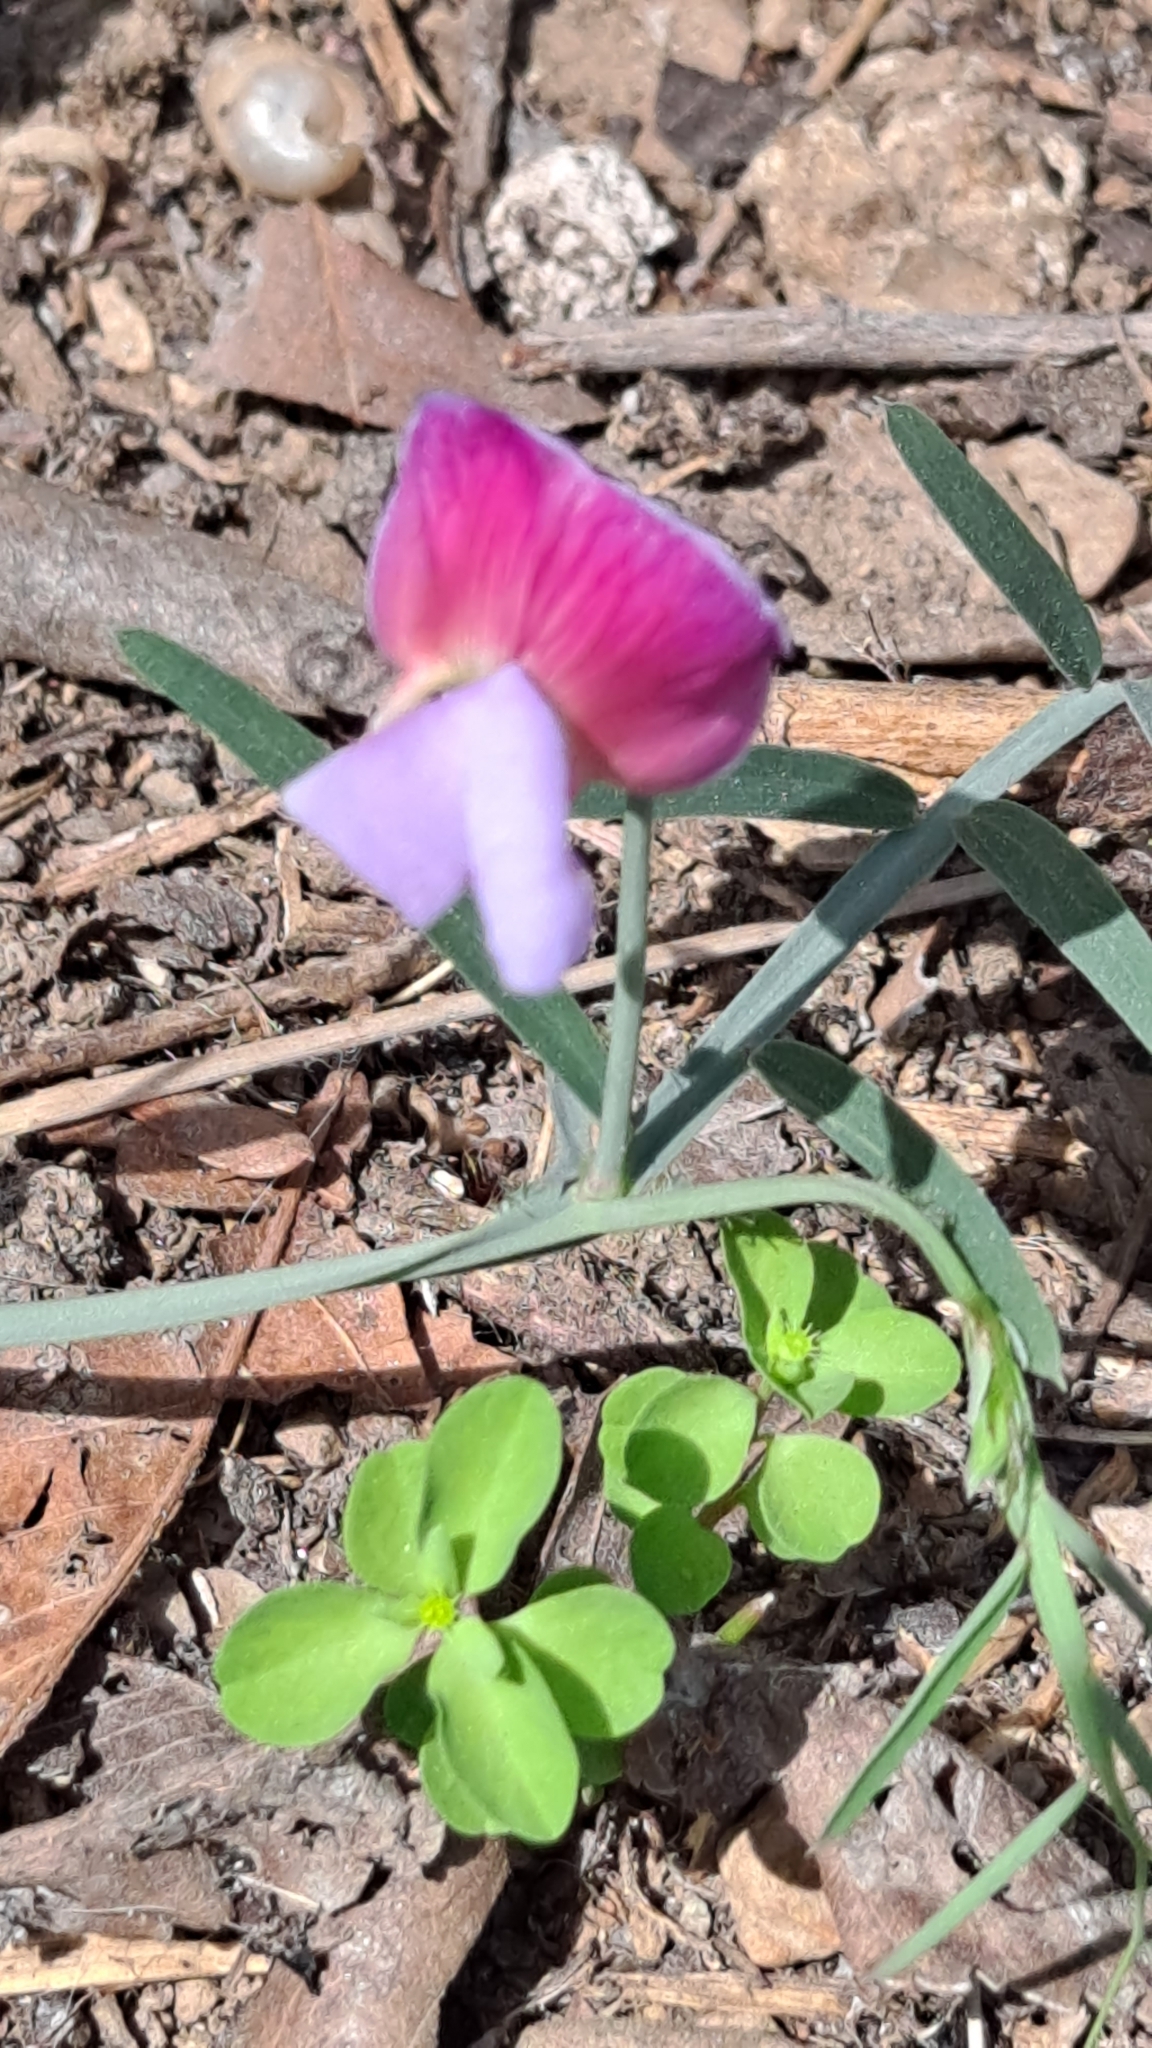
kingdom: Plantae
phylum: Tracheophyta
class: Magnoliopsida
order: Fabales
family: Fabaceae
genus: Lathyrus
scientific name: Lathyrus clymenum
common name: Spanish vetchling
